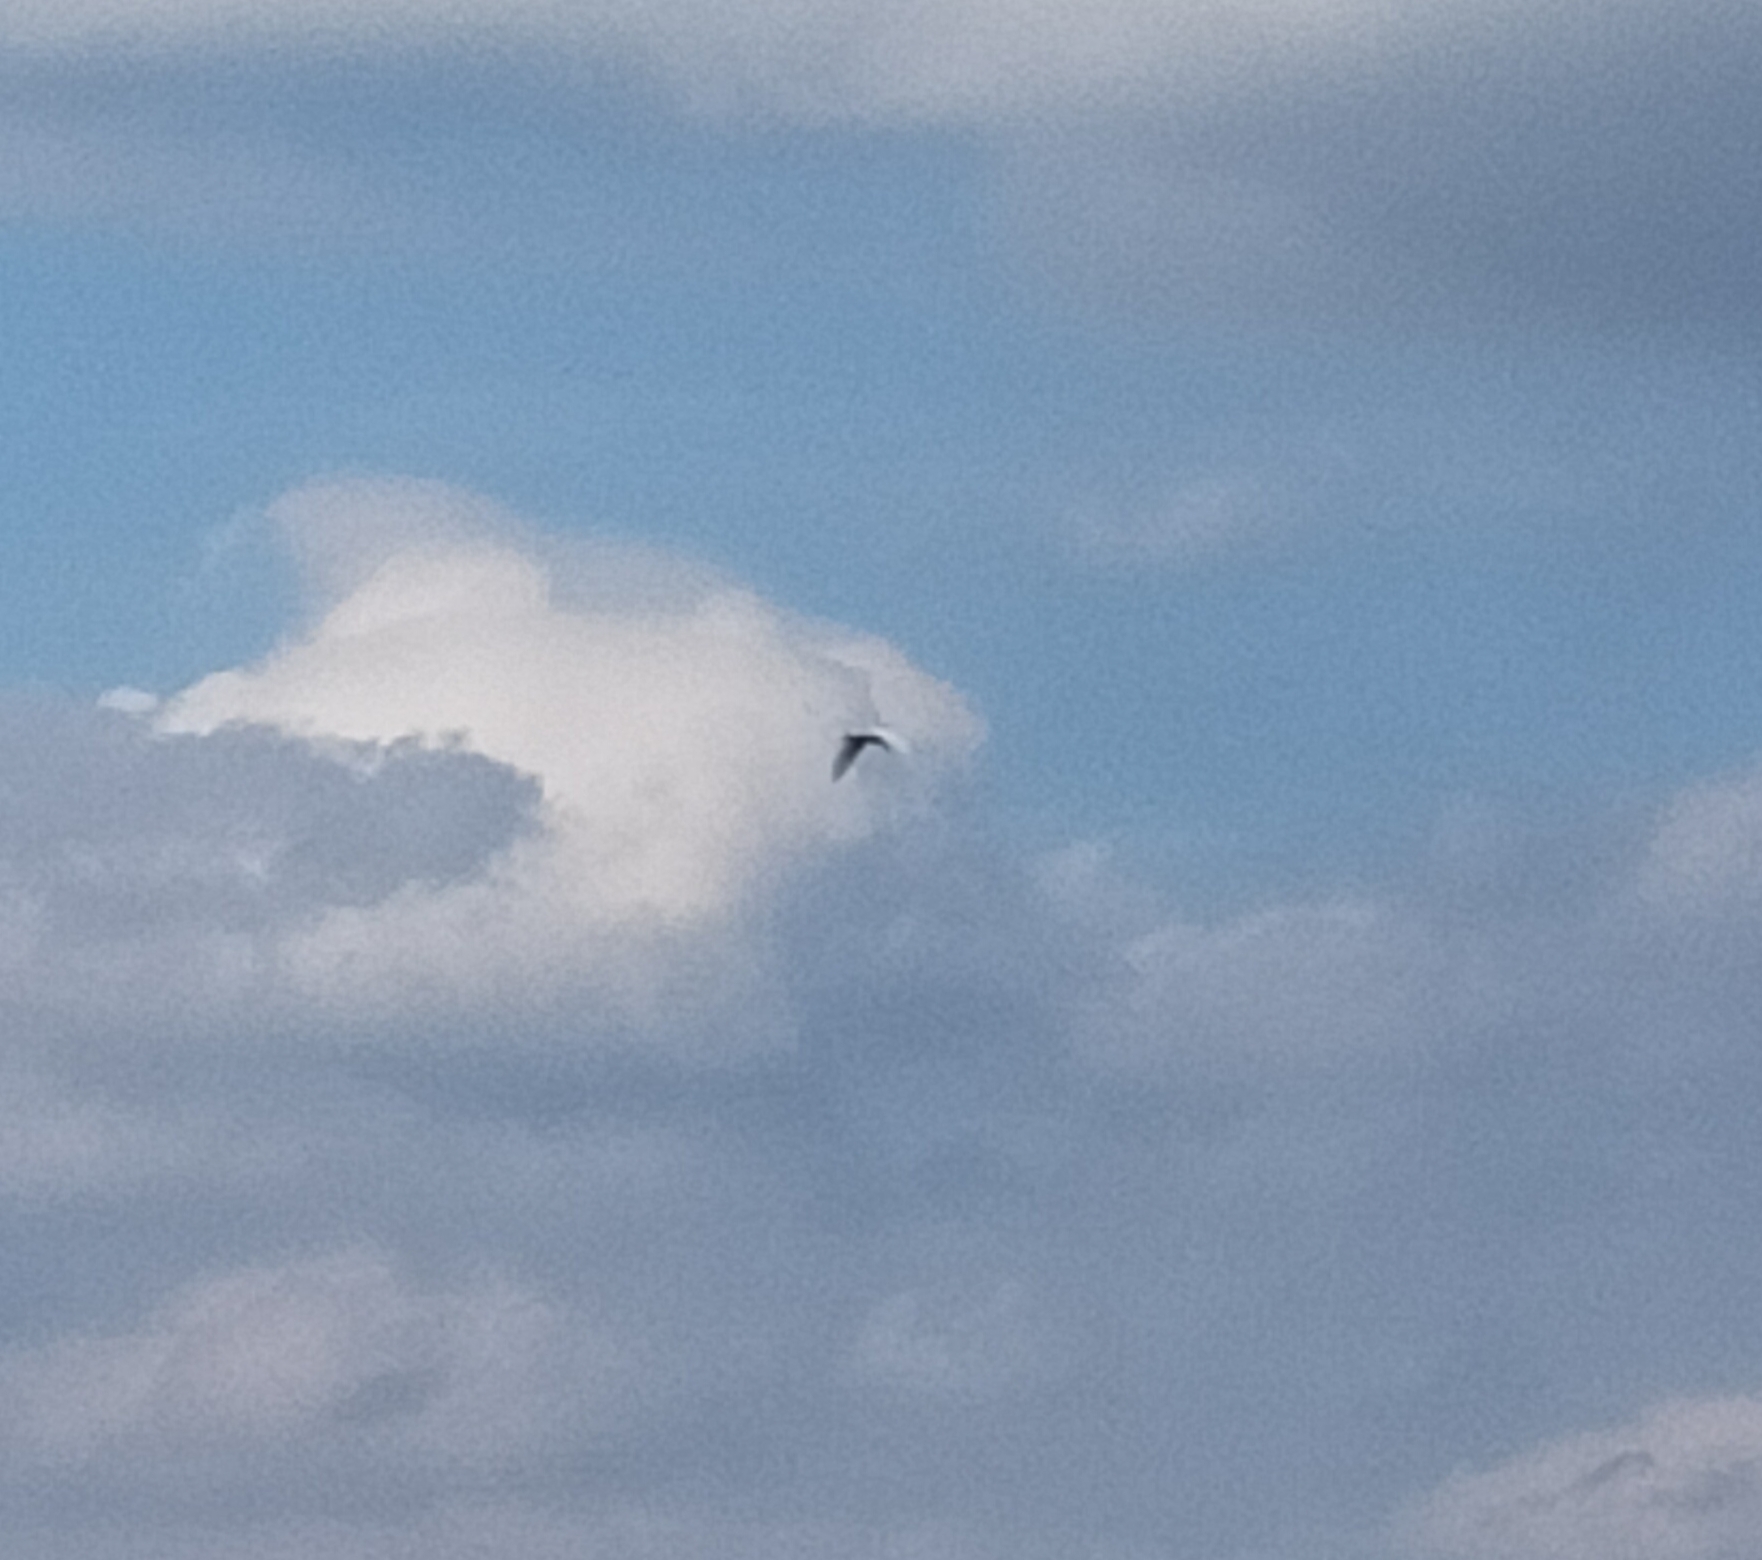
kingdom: Animalia
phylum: Chordata
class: Aves
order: Pelecaniformes
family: Ardeidae
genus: Ardea
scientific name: Ardea alba
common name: Great egret
